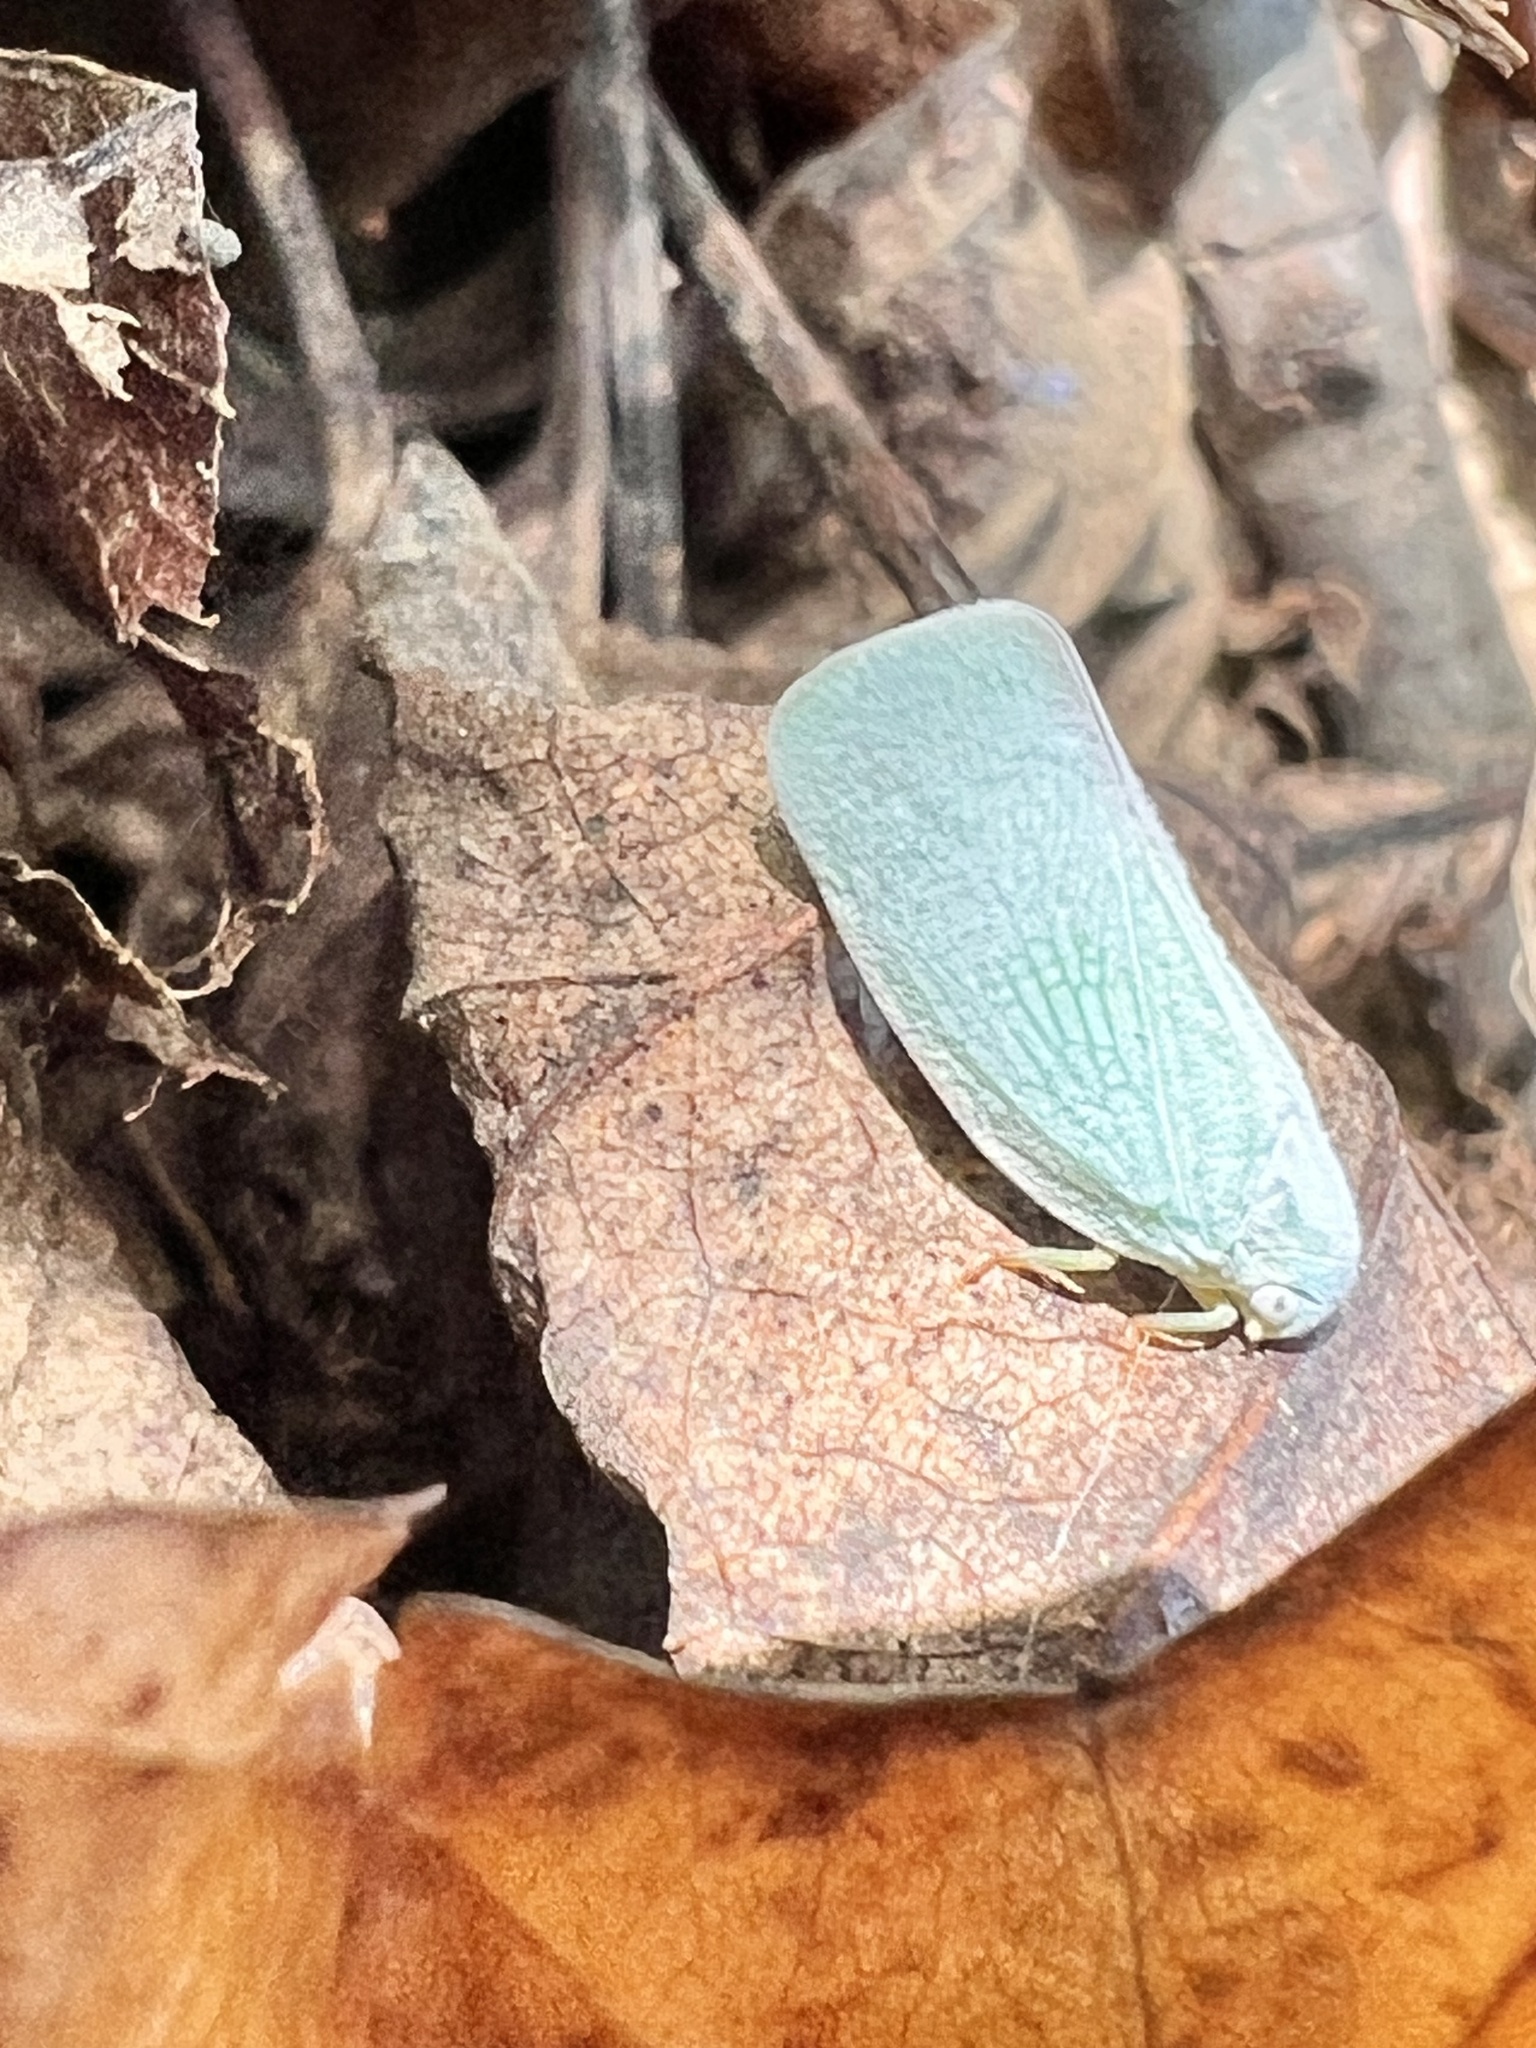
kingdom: Animalia
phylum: Arthropoda
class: Insecta
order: Hemiptera
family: Flatidae
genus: Flatormenis
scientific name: Flatormenis proxima
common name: Northern flatid planthopper
